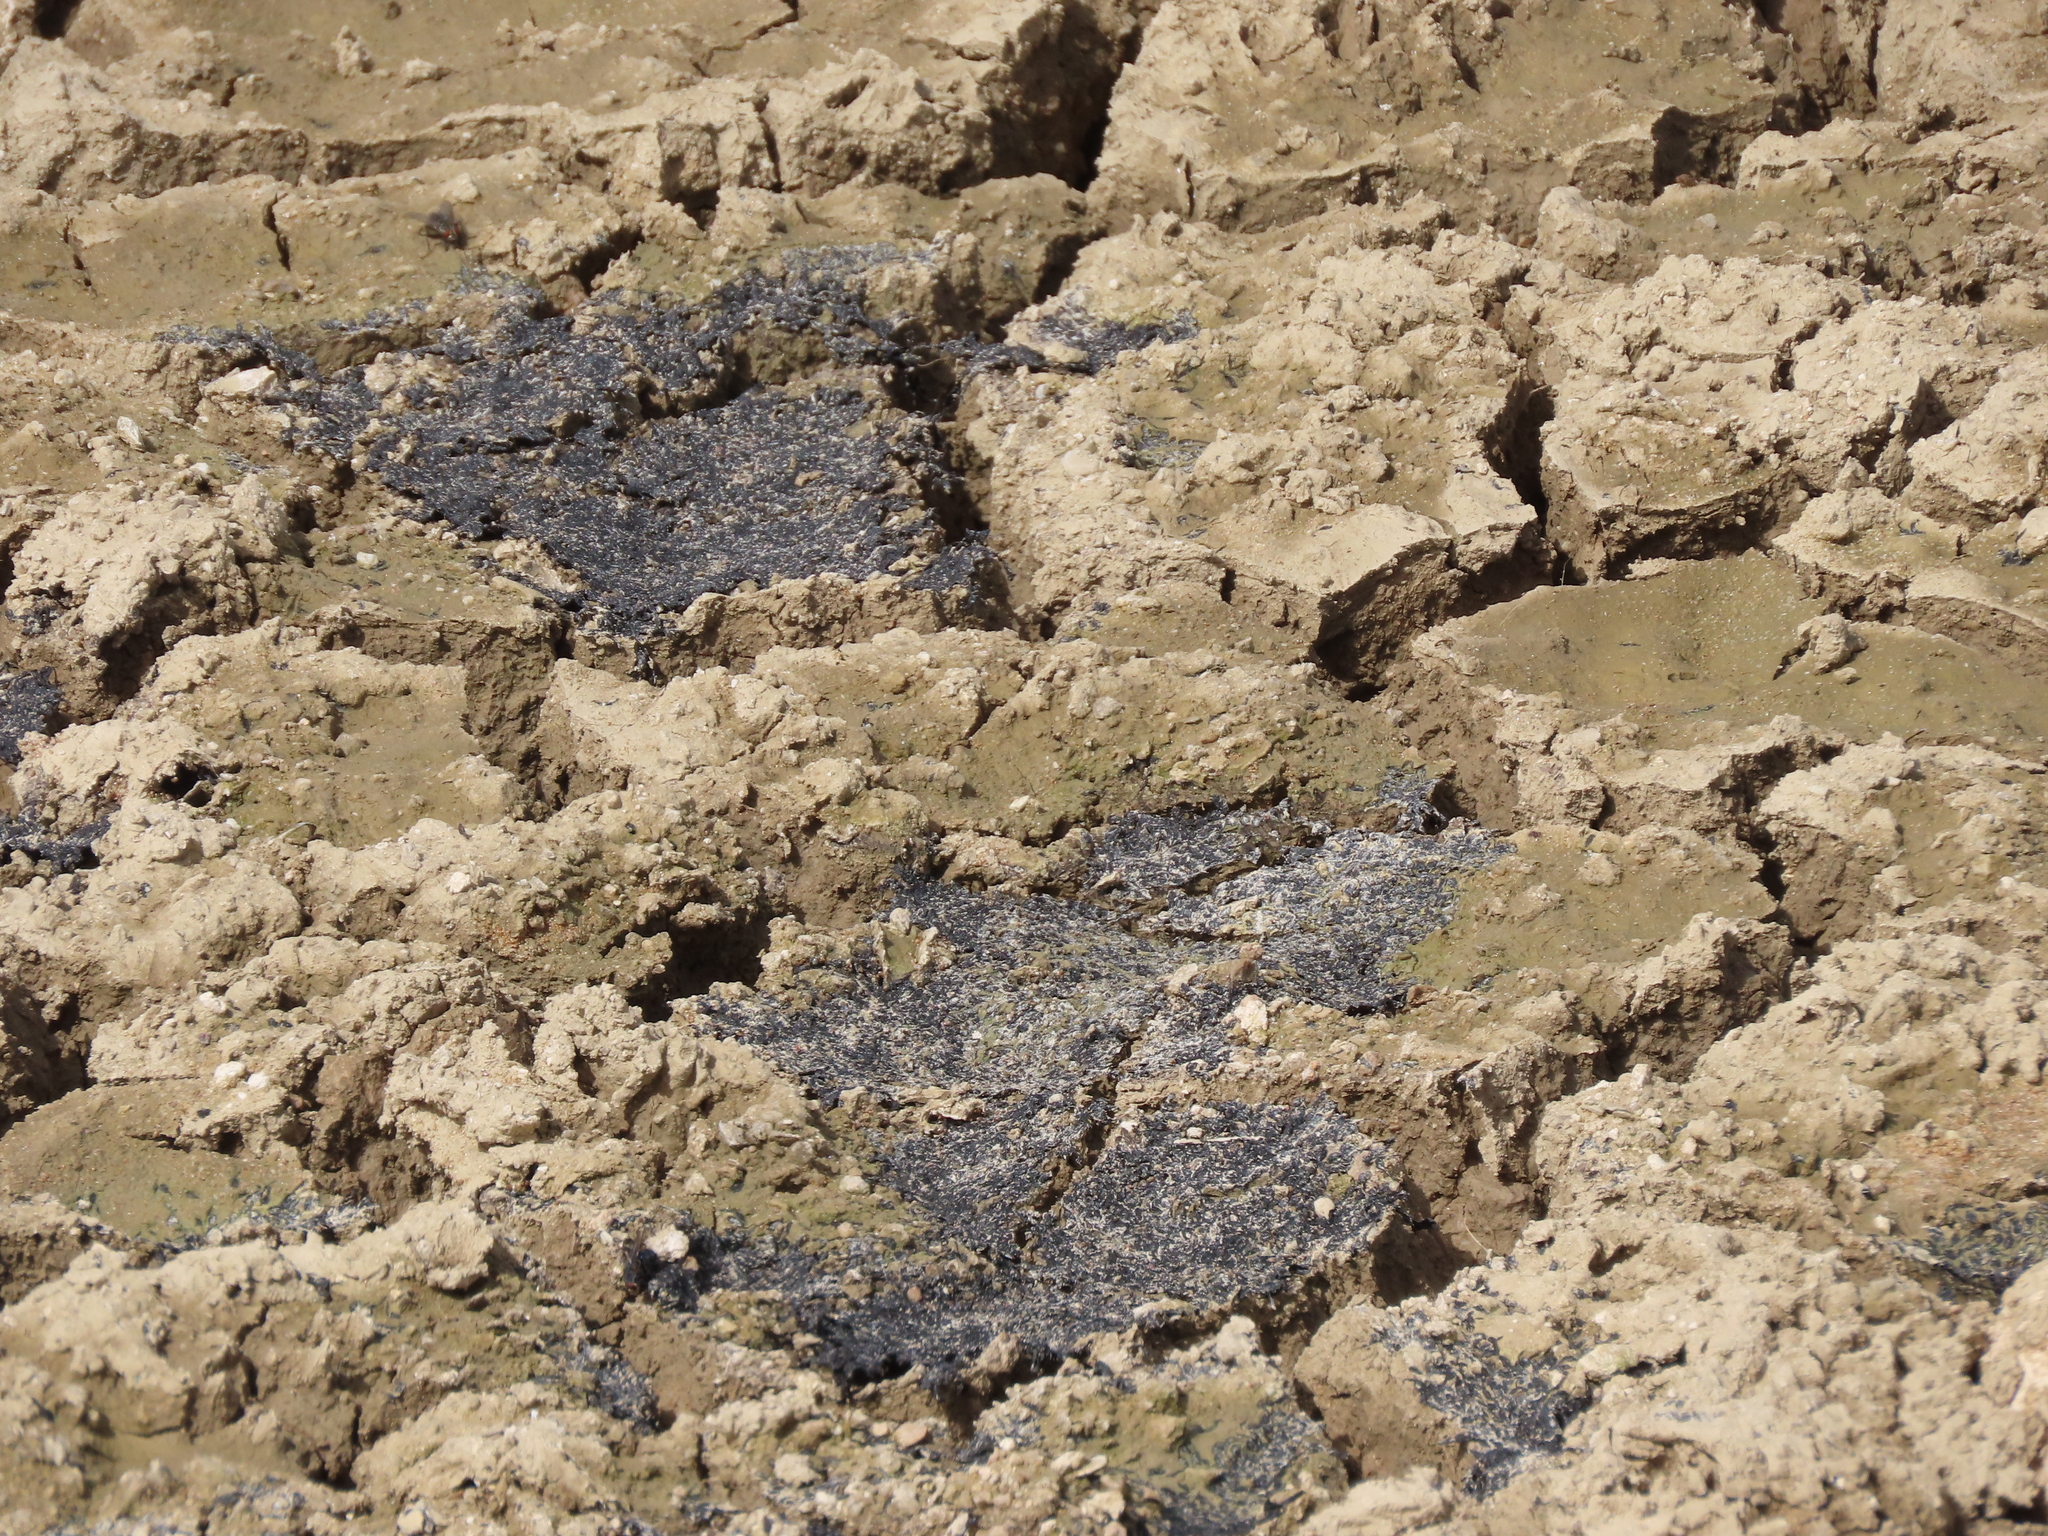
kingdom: Animalia
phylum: Chordata
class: Amphibia
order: Anura
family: Bufonidae
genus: Epidalea
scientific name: Epidalea calamita
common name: Natterjack toad
